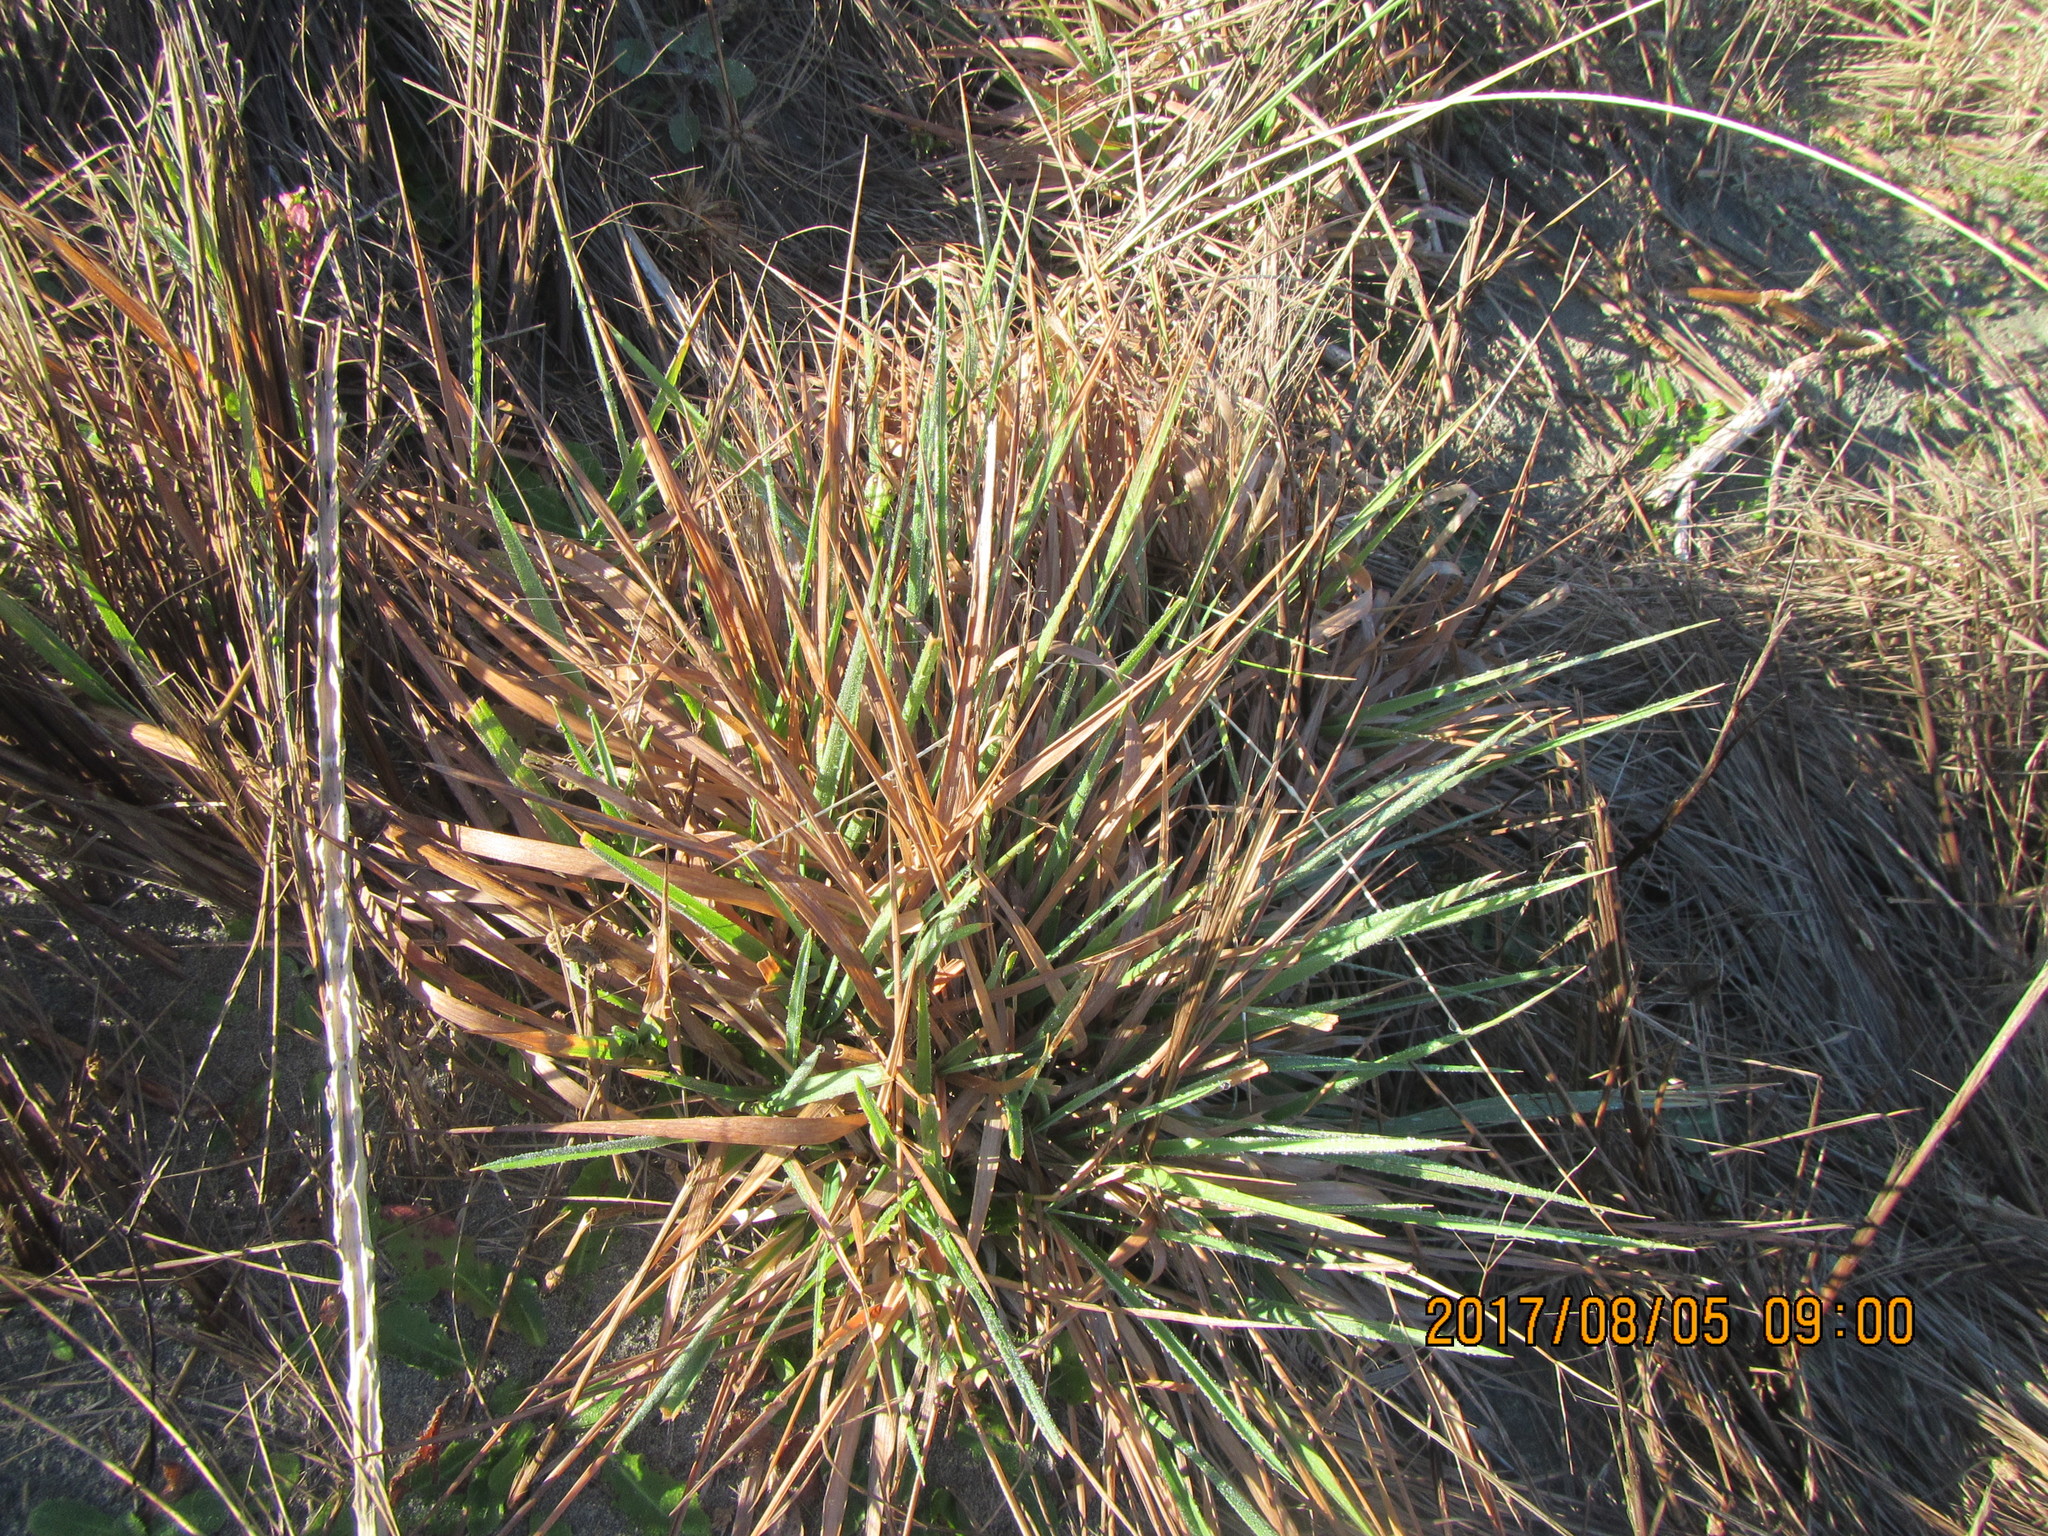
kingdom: Plantae
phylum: Tracheophyta
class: Liliopsida
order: Poales
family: Poaceae
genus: Lachnagrostis
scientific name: Lachnagrostis billardierei
